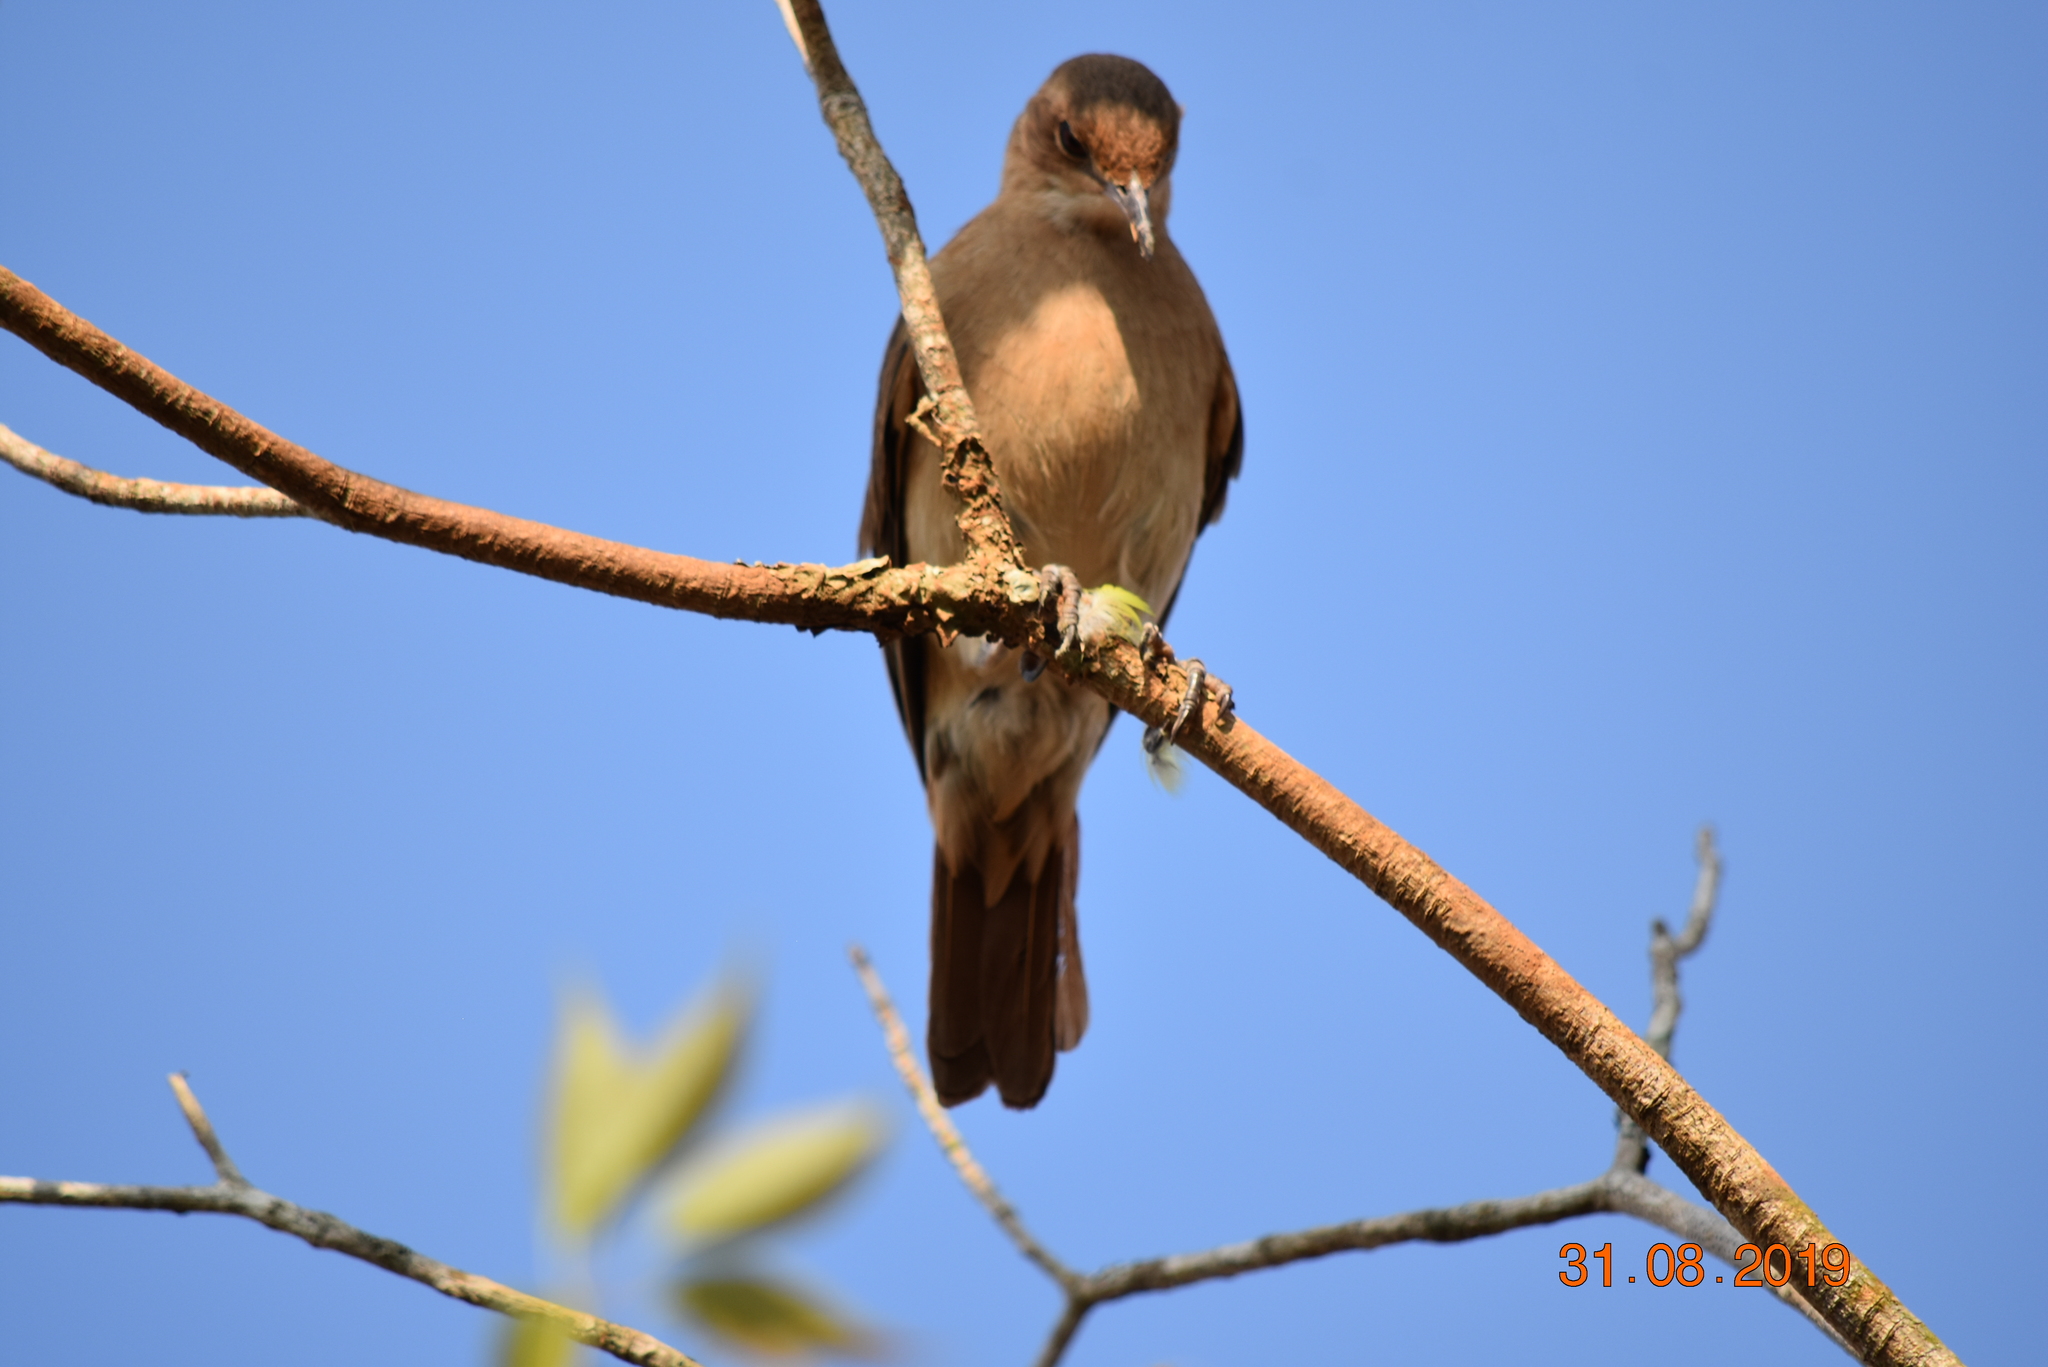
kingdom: Animalia
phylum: Chordata
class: Aves
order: Passeriformes
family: Furnariidae
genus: Furnarius
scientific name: Furnarius rufus
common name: Rufous hornero
